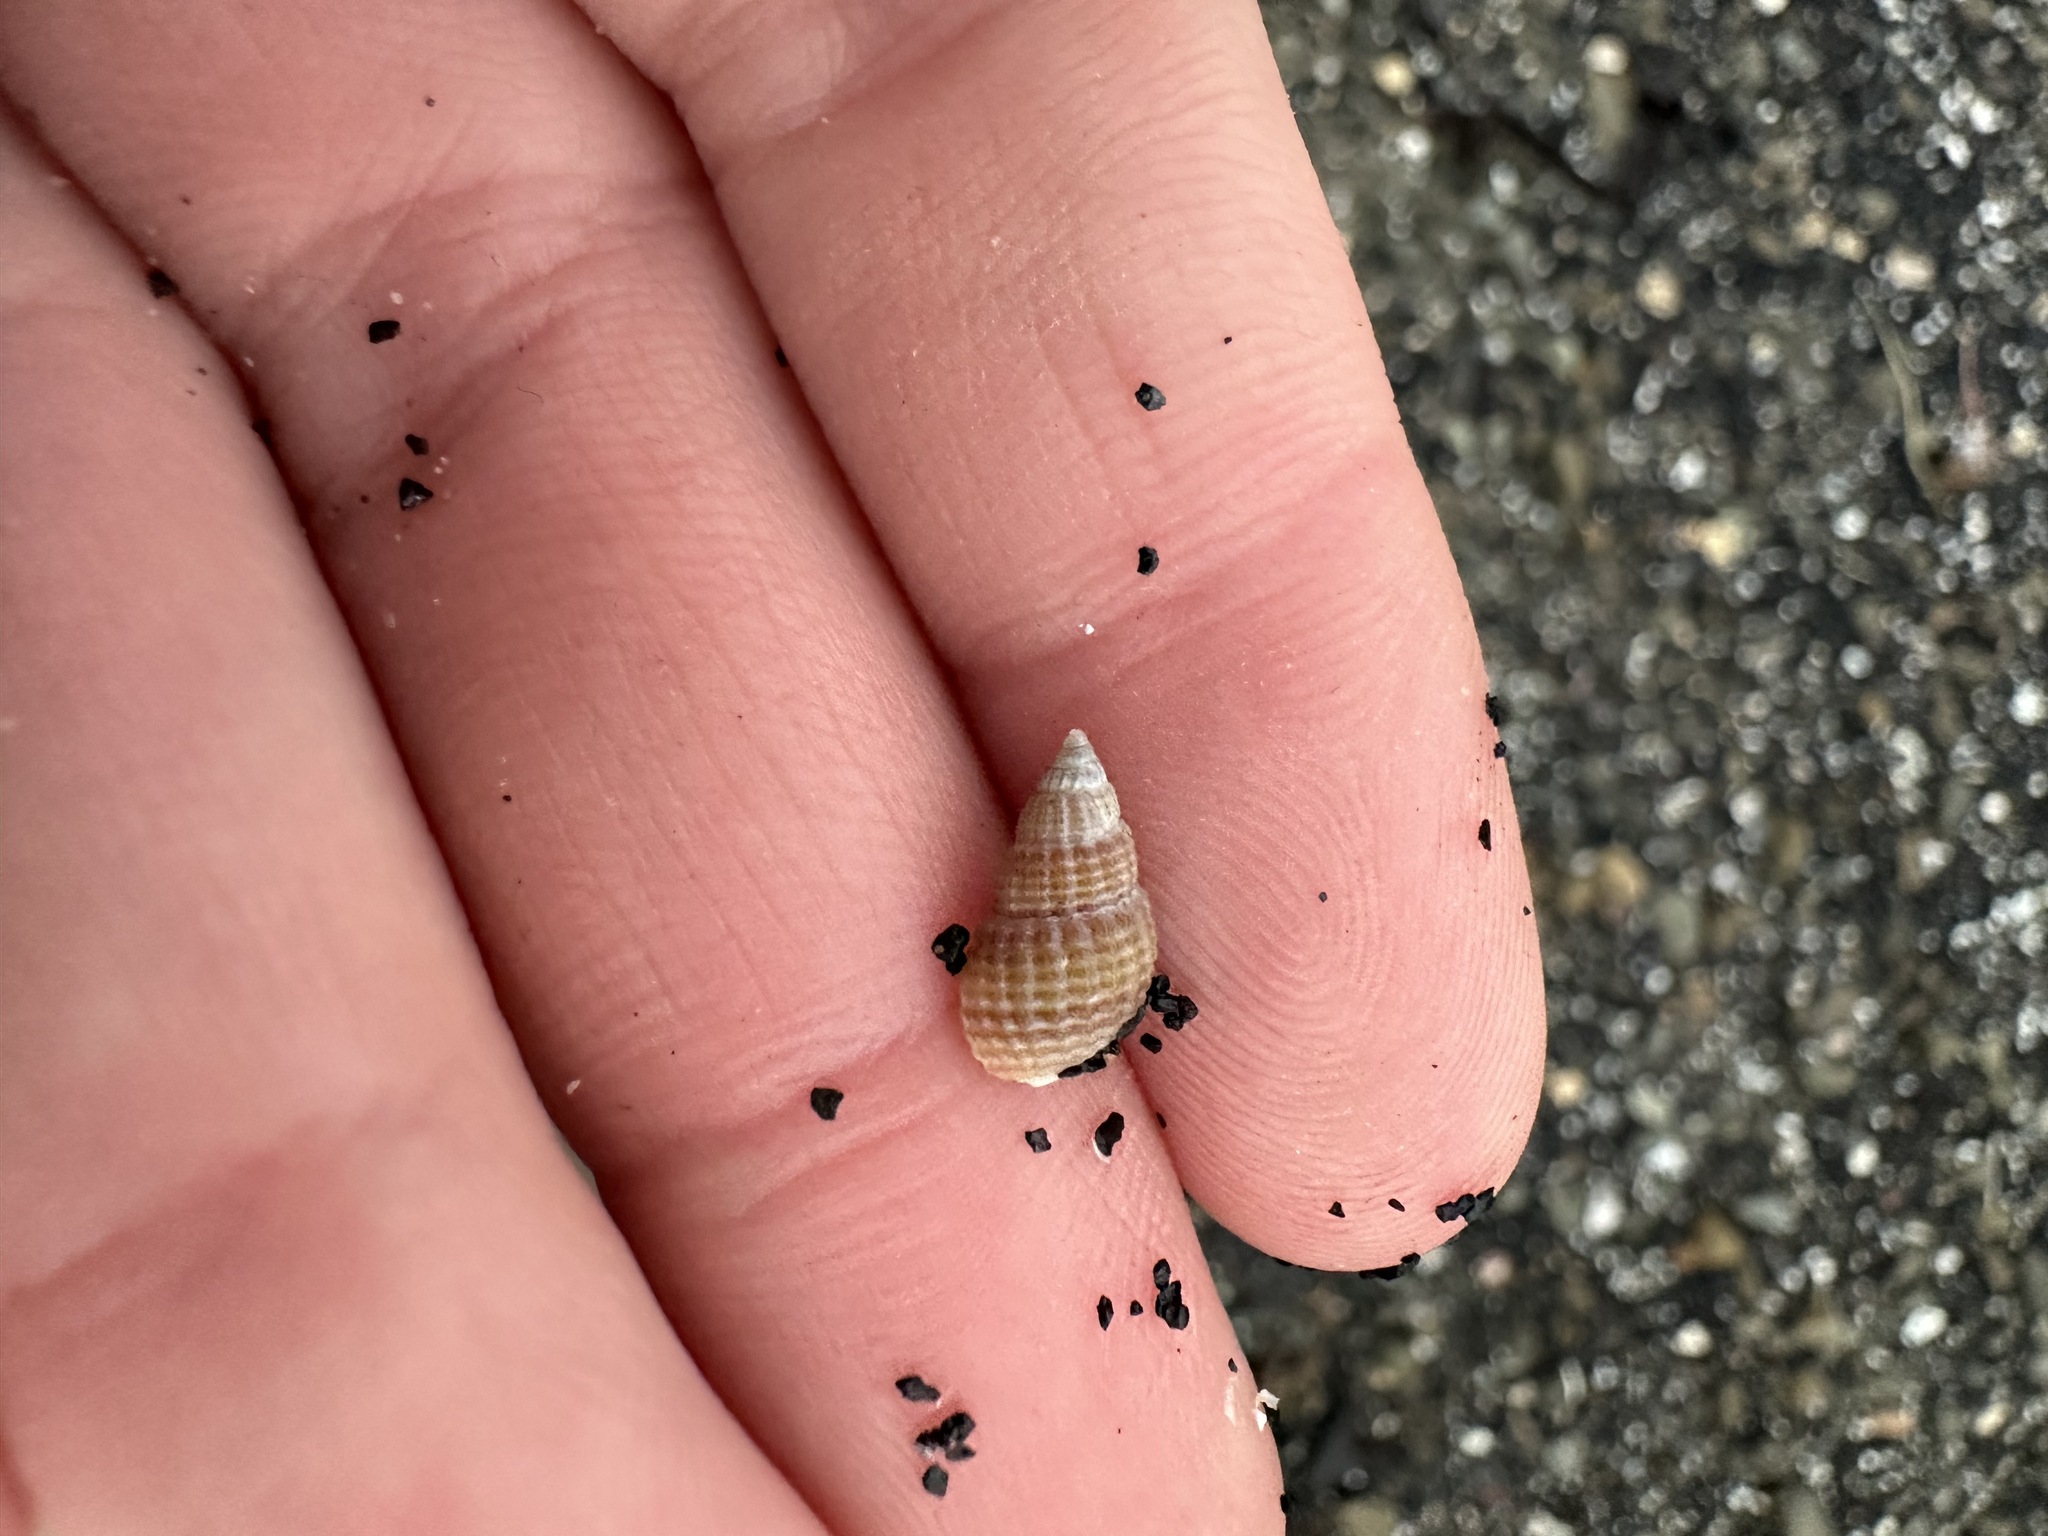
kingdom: Animalia
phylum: Mollusca
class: Gastropoda
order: Neogastropoda
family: Nassariidae
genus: Ilyanassa
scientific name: Ilyanassa trivittata
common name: Three-line mudsnail
